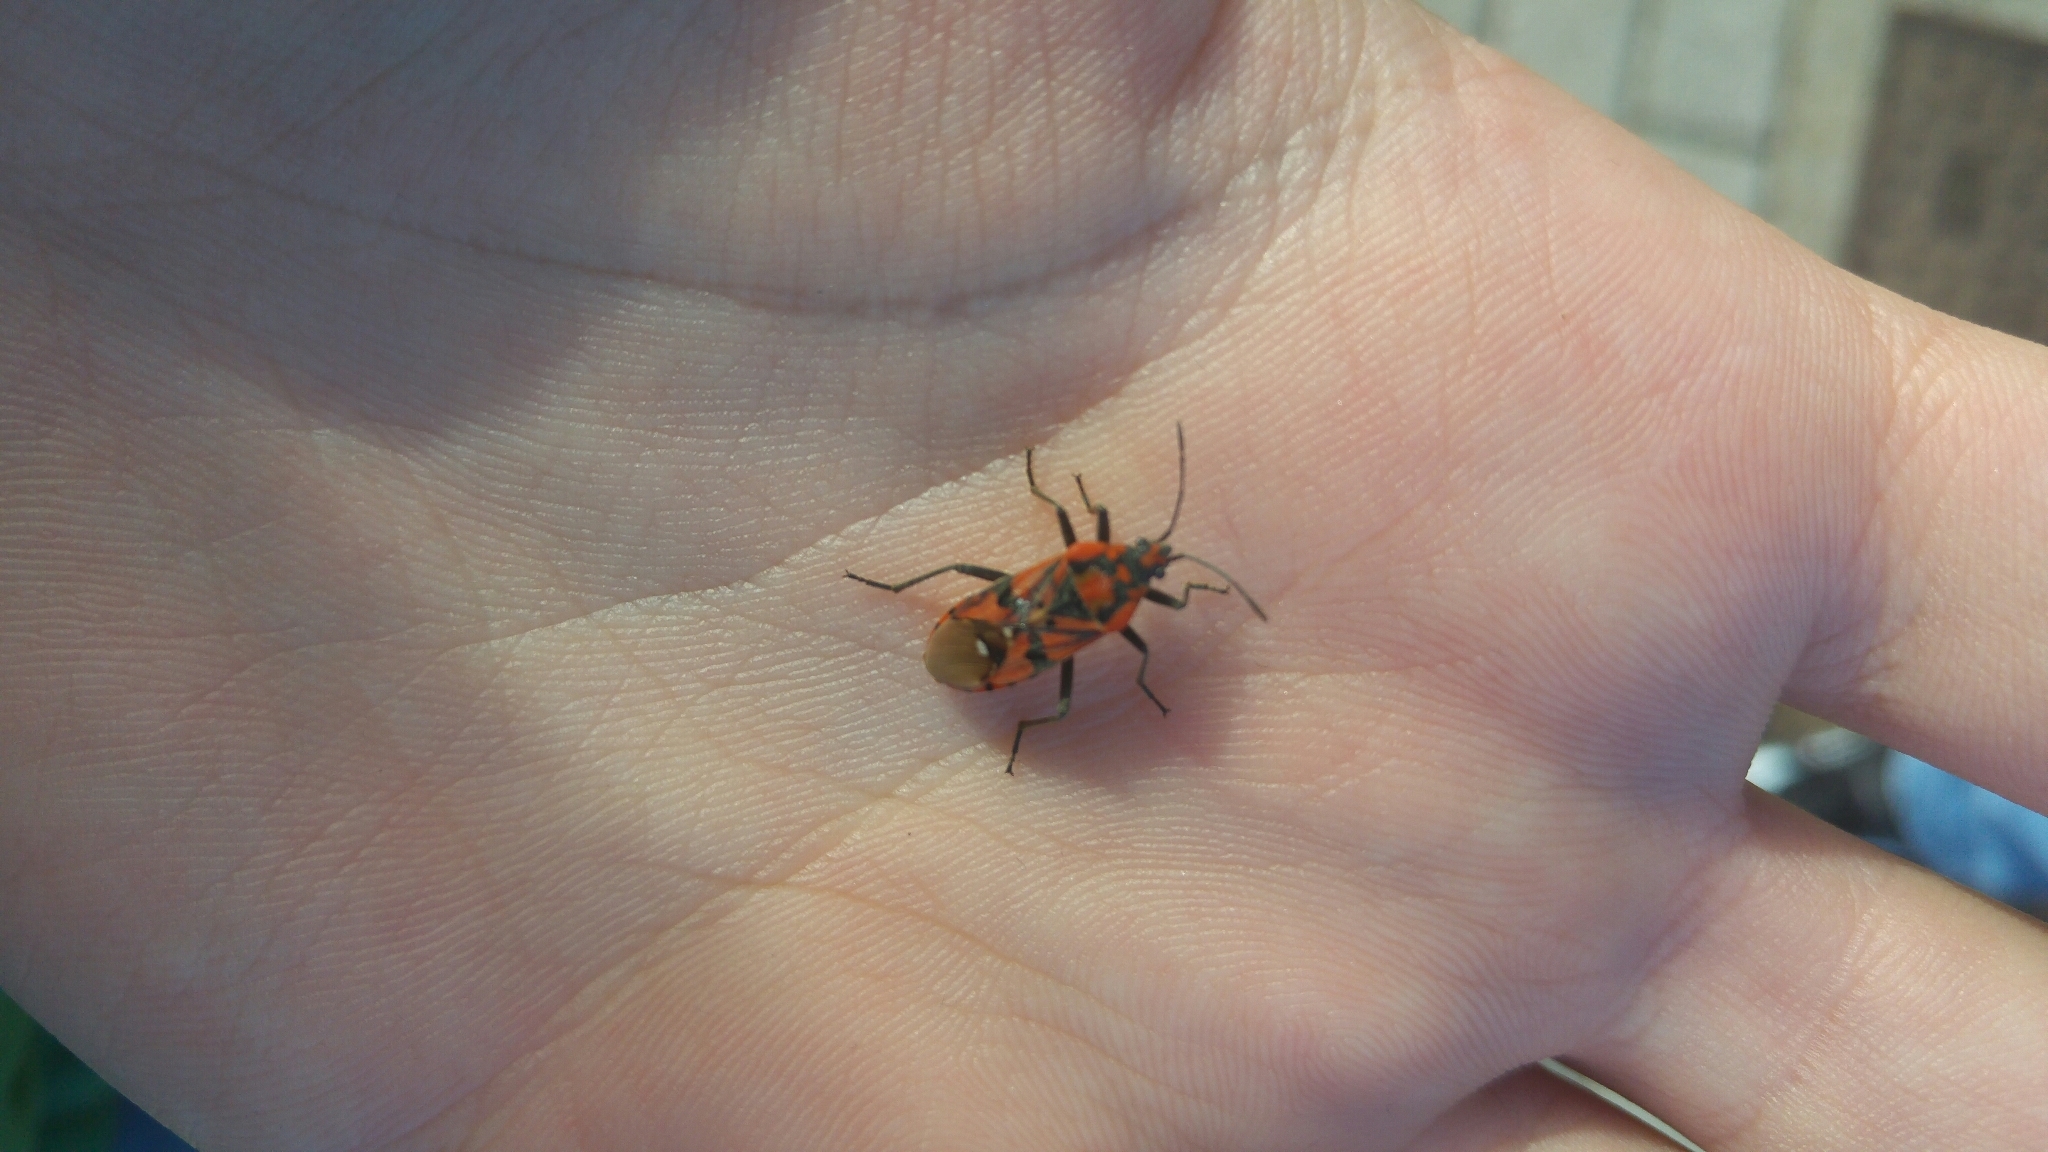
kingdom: Animalia
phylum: Arthropoda
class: Insecta
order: Hemiptera
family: Lygaeidae
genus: Spilostethus
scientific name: Spilostethus pandurus
